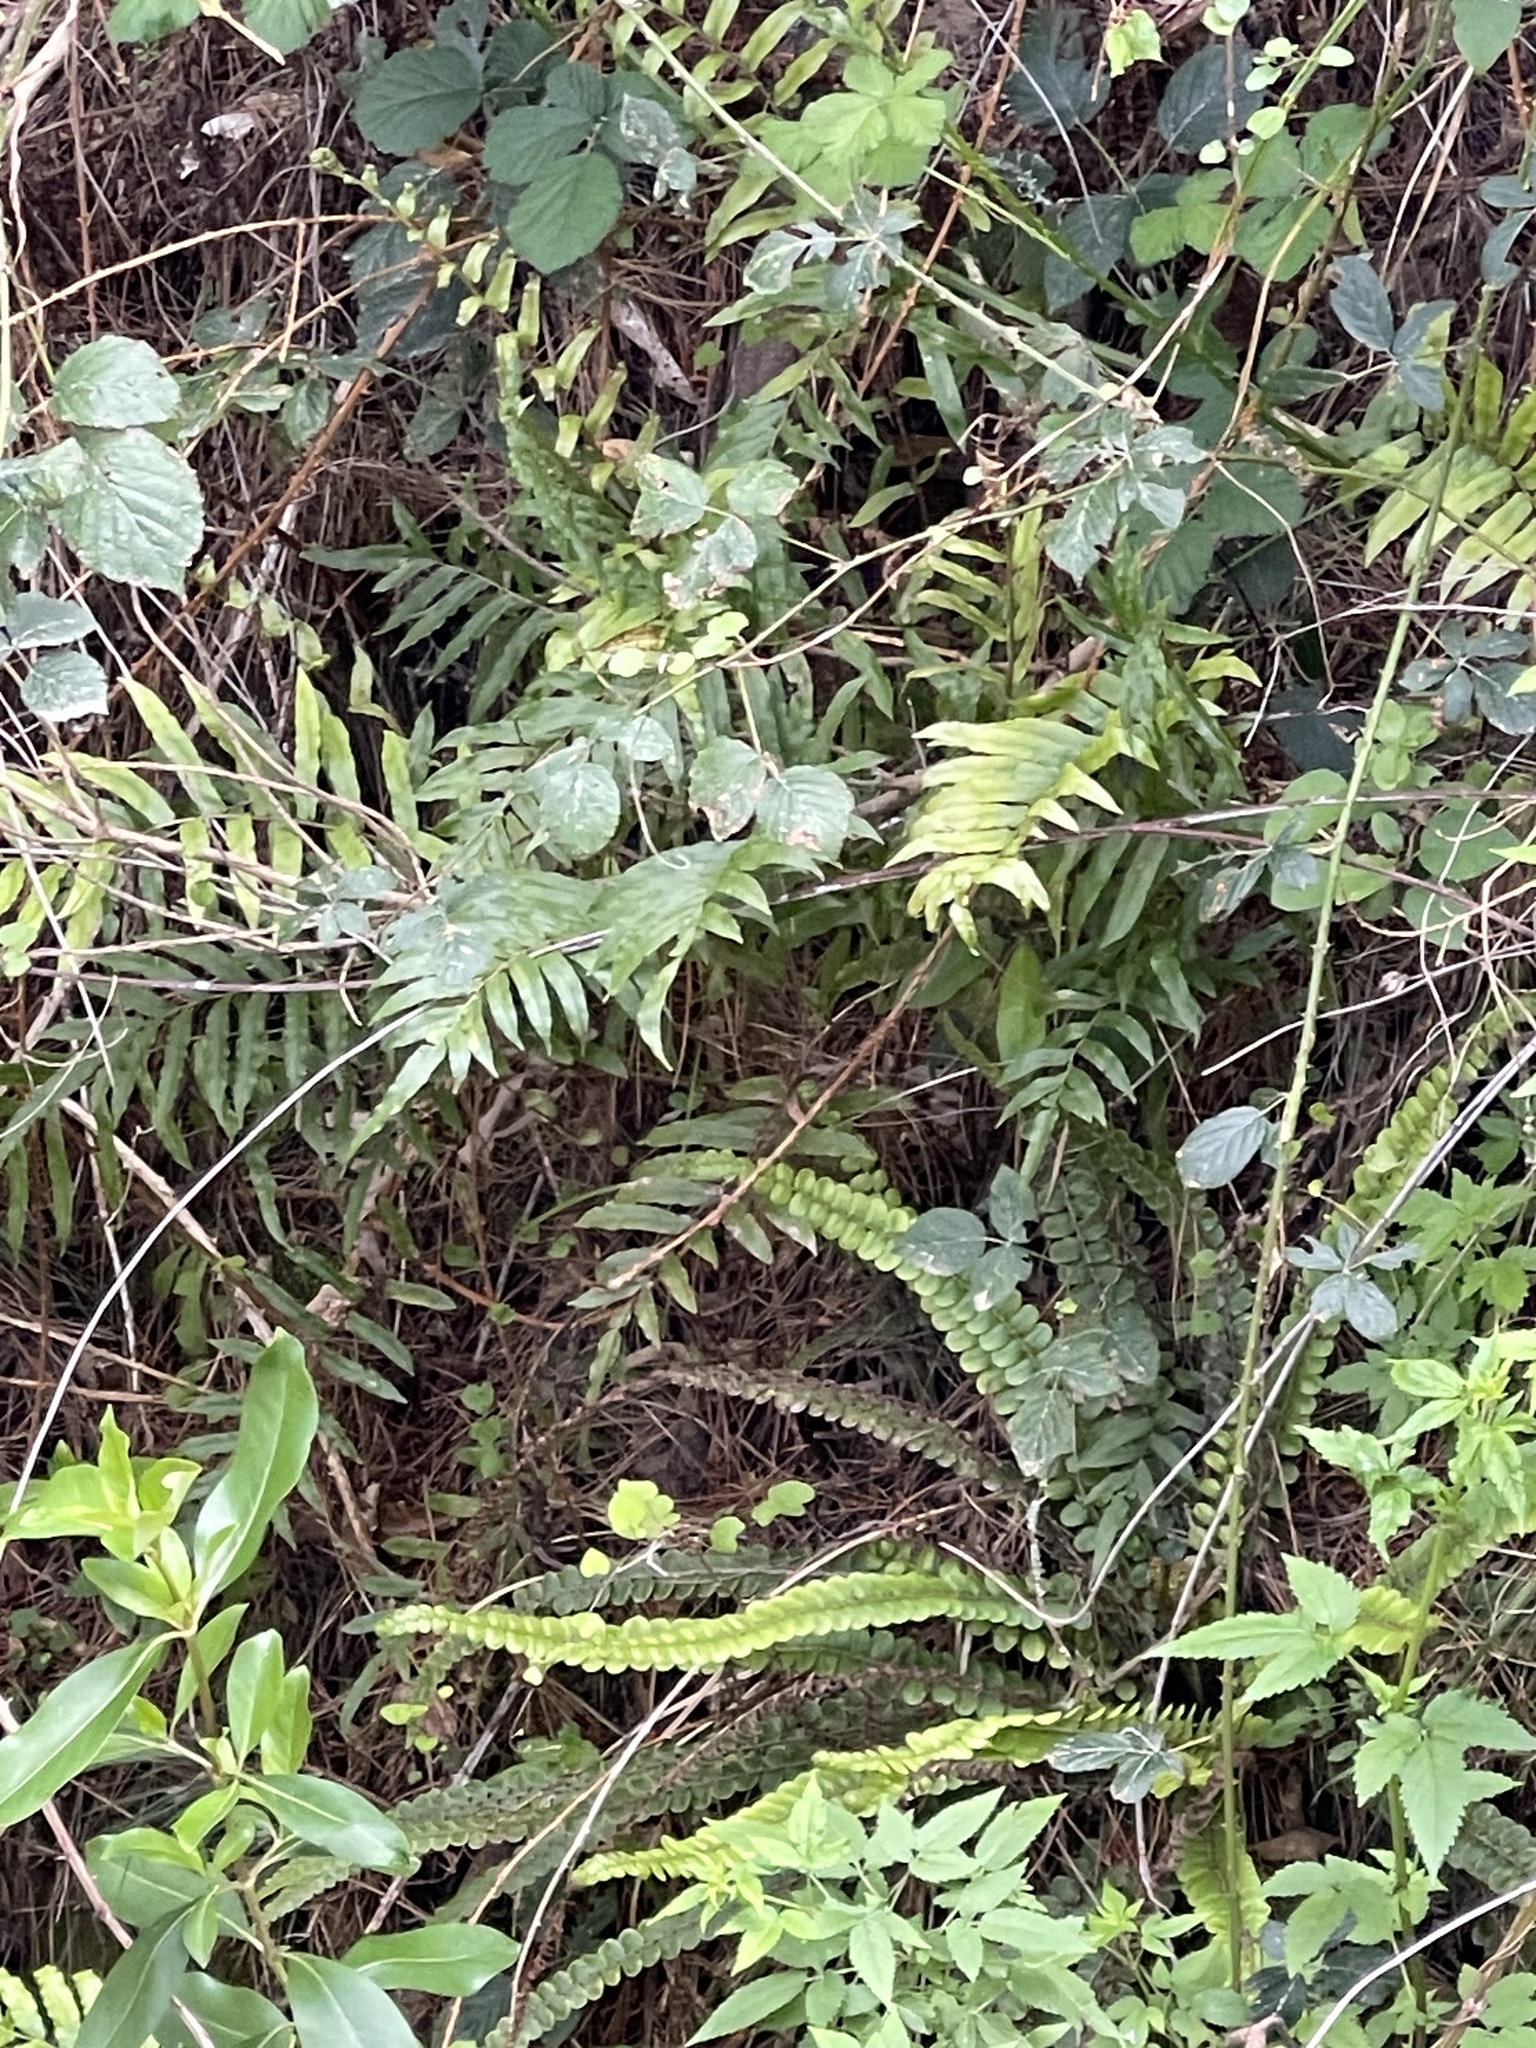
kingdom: Plantae
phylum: Tracheophyta
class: Polypodiopsida
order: Polypodiales
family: Blechnaceae
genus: Cranfillia
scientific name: Cranfillia fluviatilis
